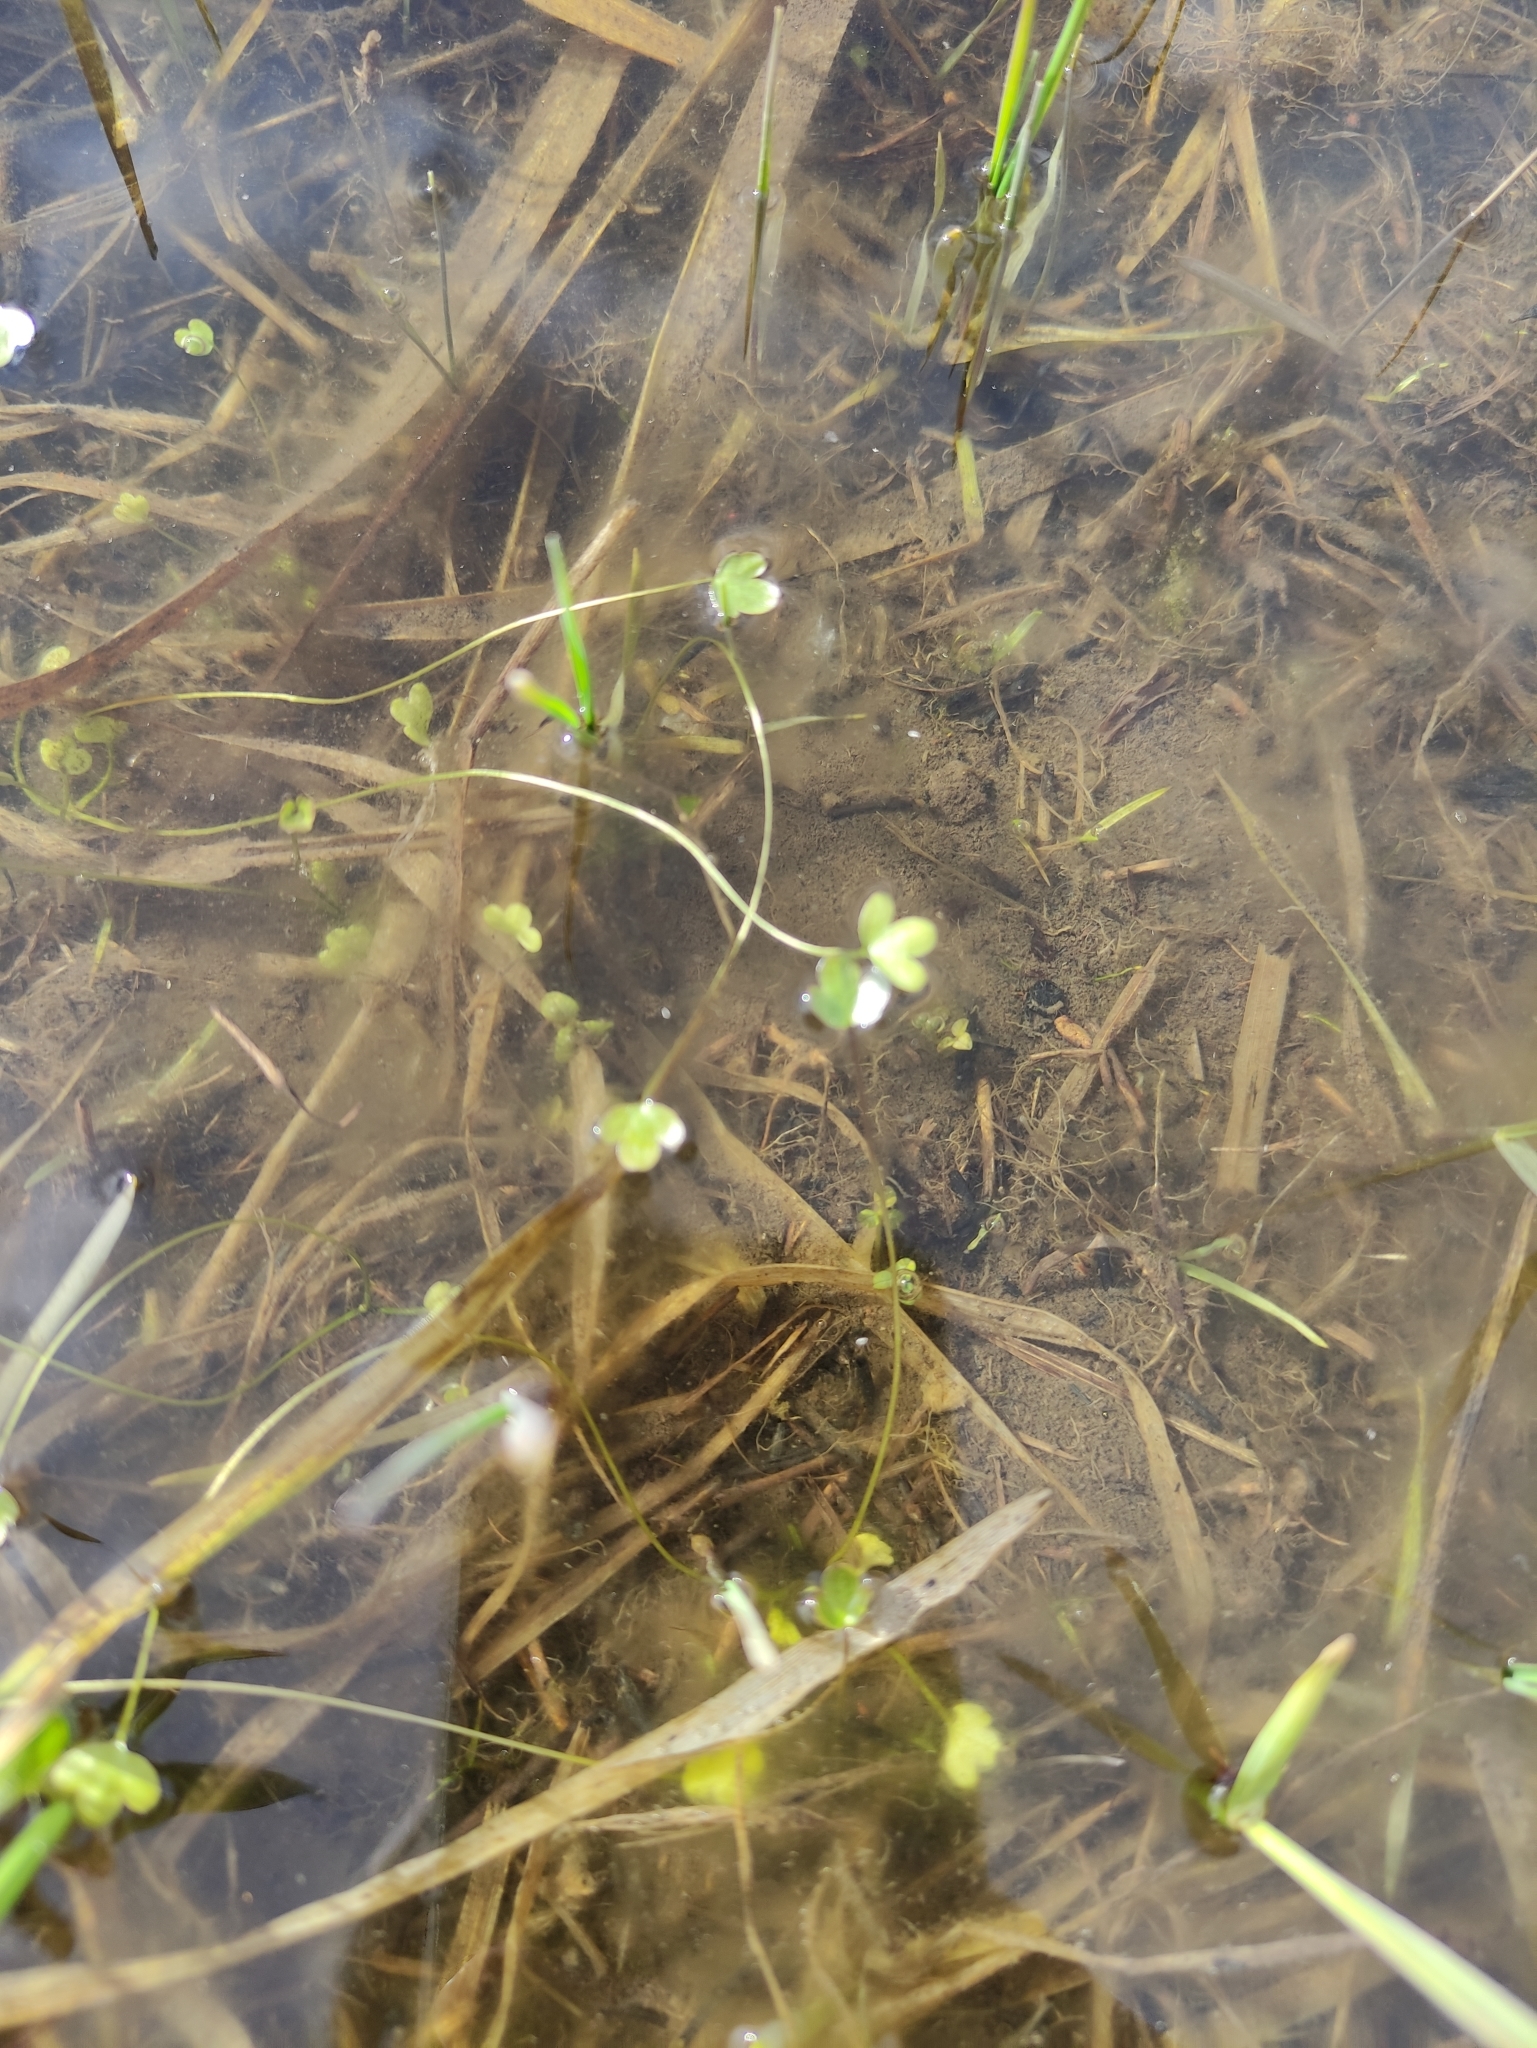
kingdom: Plantae
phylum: Tracheophyta
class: Magnoliopsida
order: Ranunculales
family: Ranunculaceae
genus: Ranunculus
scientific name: Ranunculus sceleratus
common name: Celery-leaved buttercup
